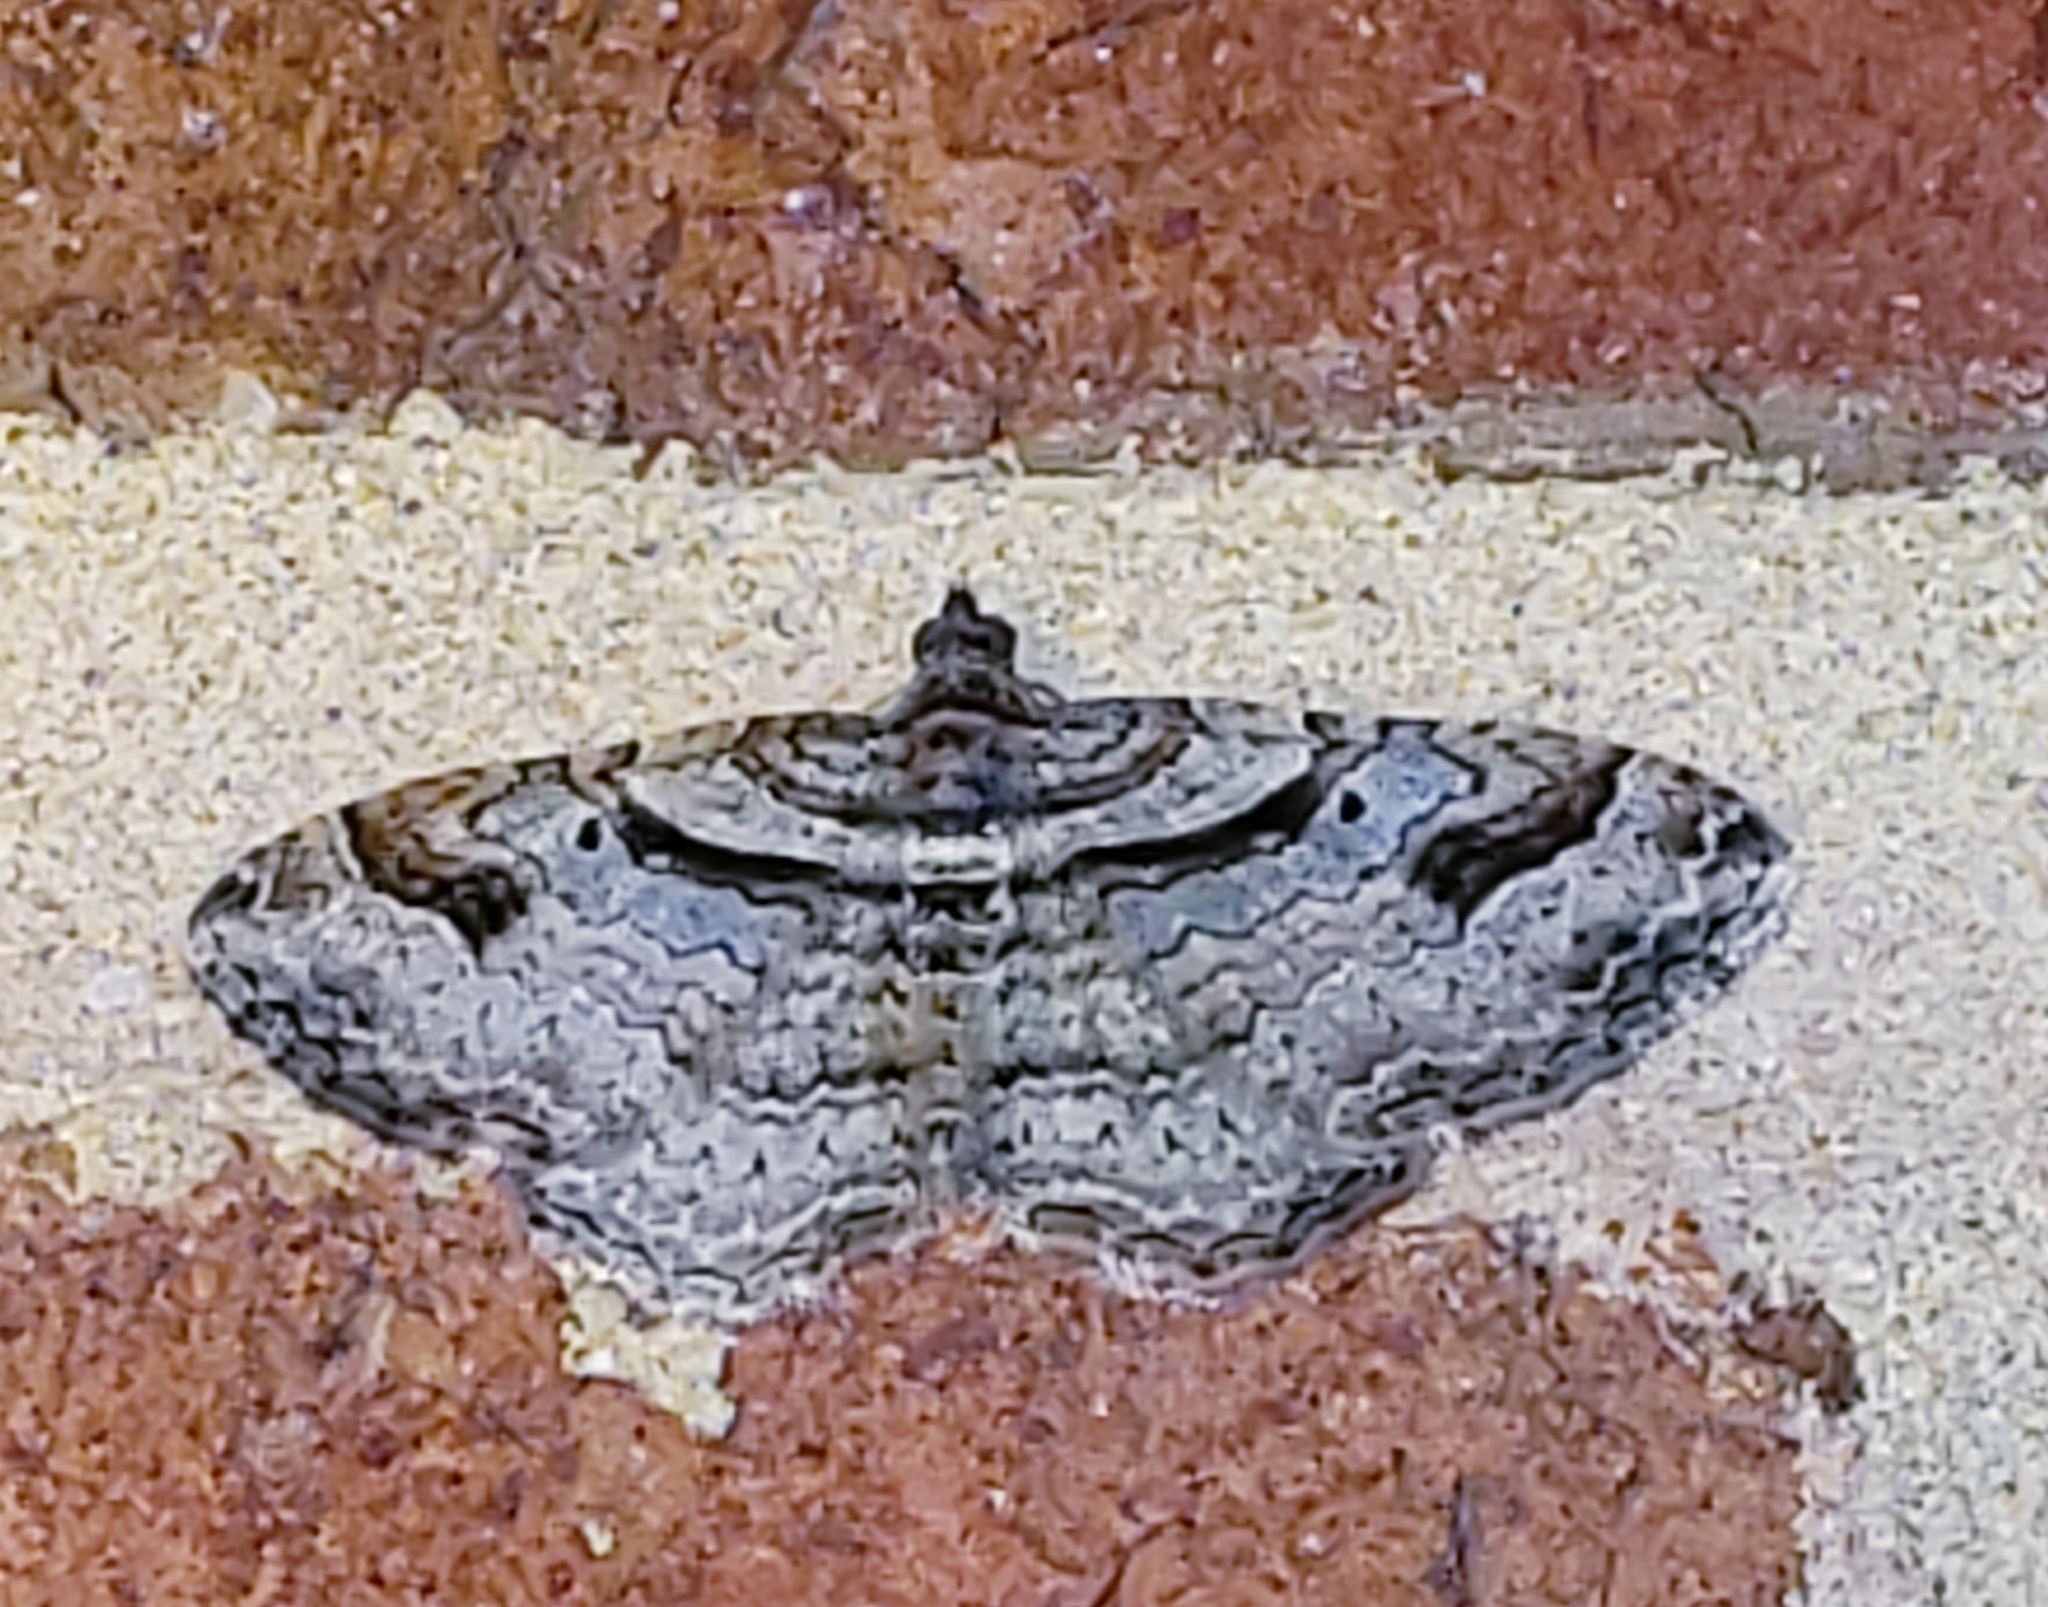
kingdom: Animalia
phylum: Arthropoda
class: Insecta
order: Lepidoptera
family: Geometridae
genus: Costaconvexa
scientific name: Costaconvexa centrostrigaria
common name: Bent-line carpet
